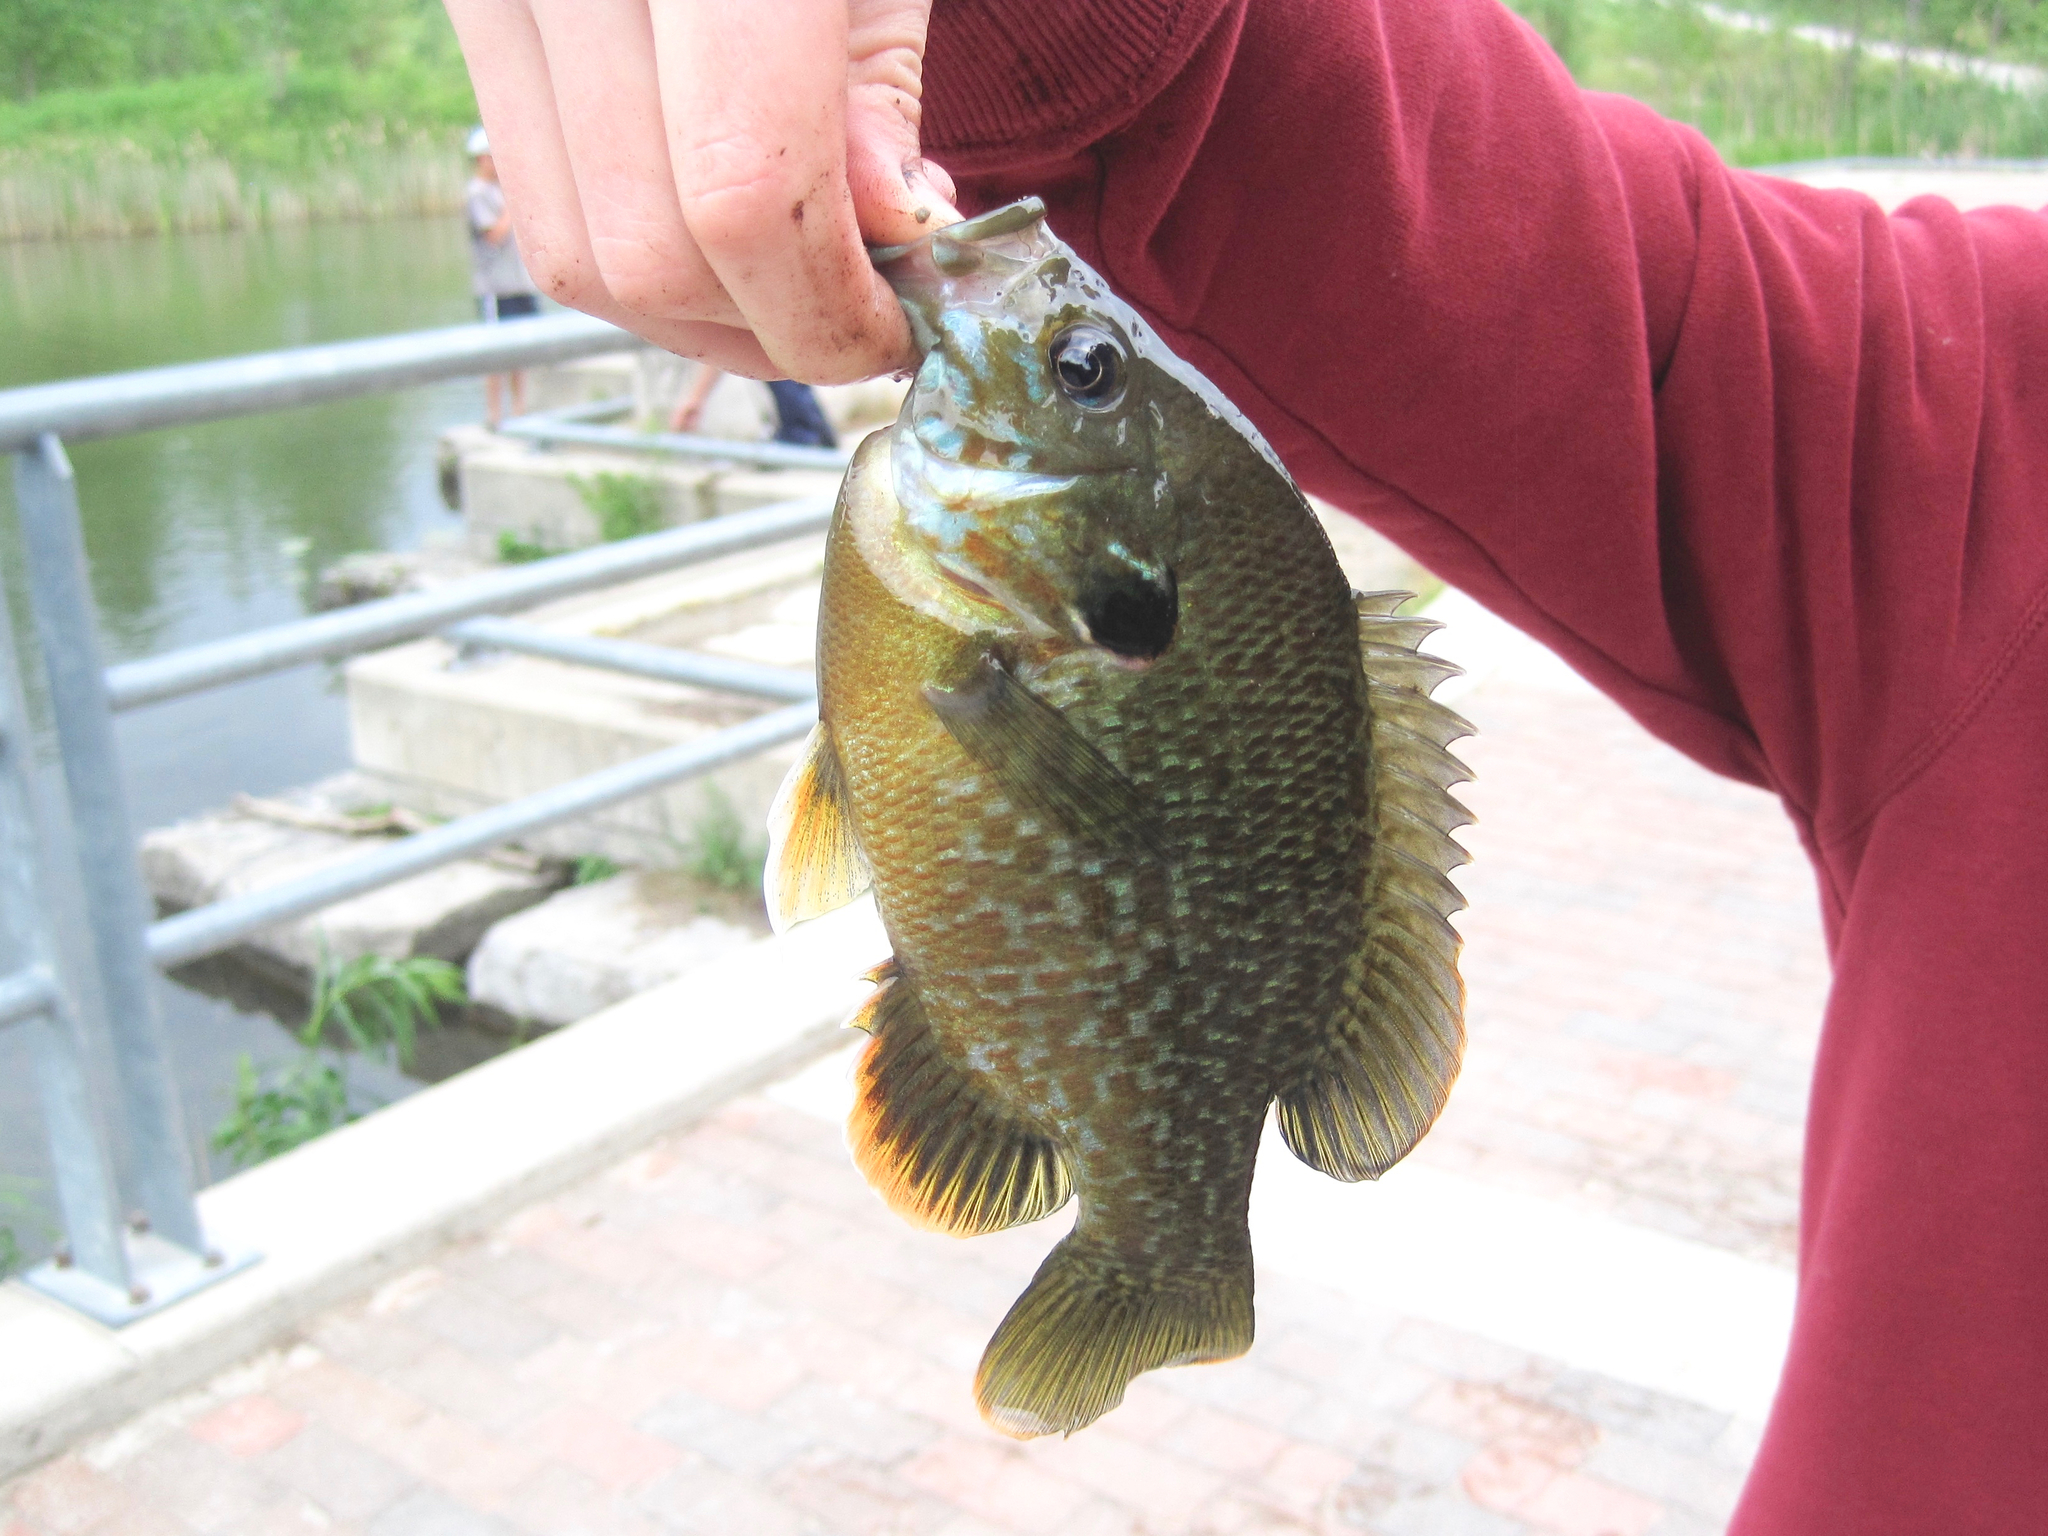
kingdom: Animalia
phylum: Chordata
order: Perciformes
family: Centrarchidae
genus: Lepomis
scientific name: Lepomis
